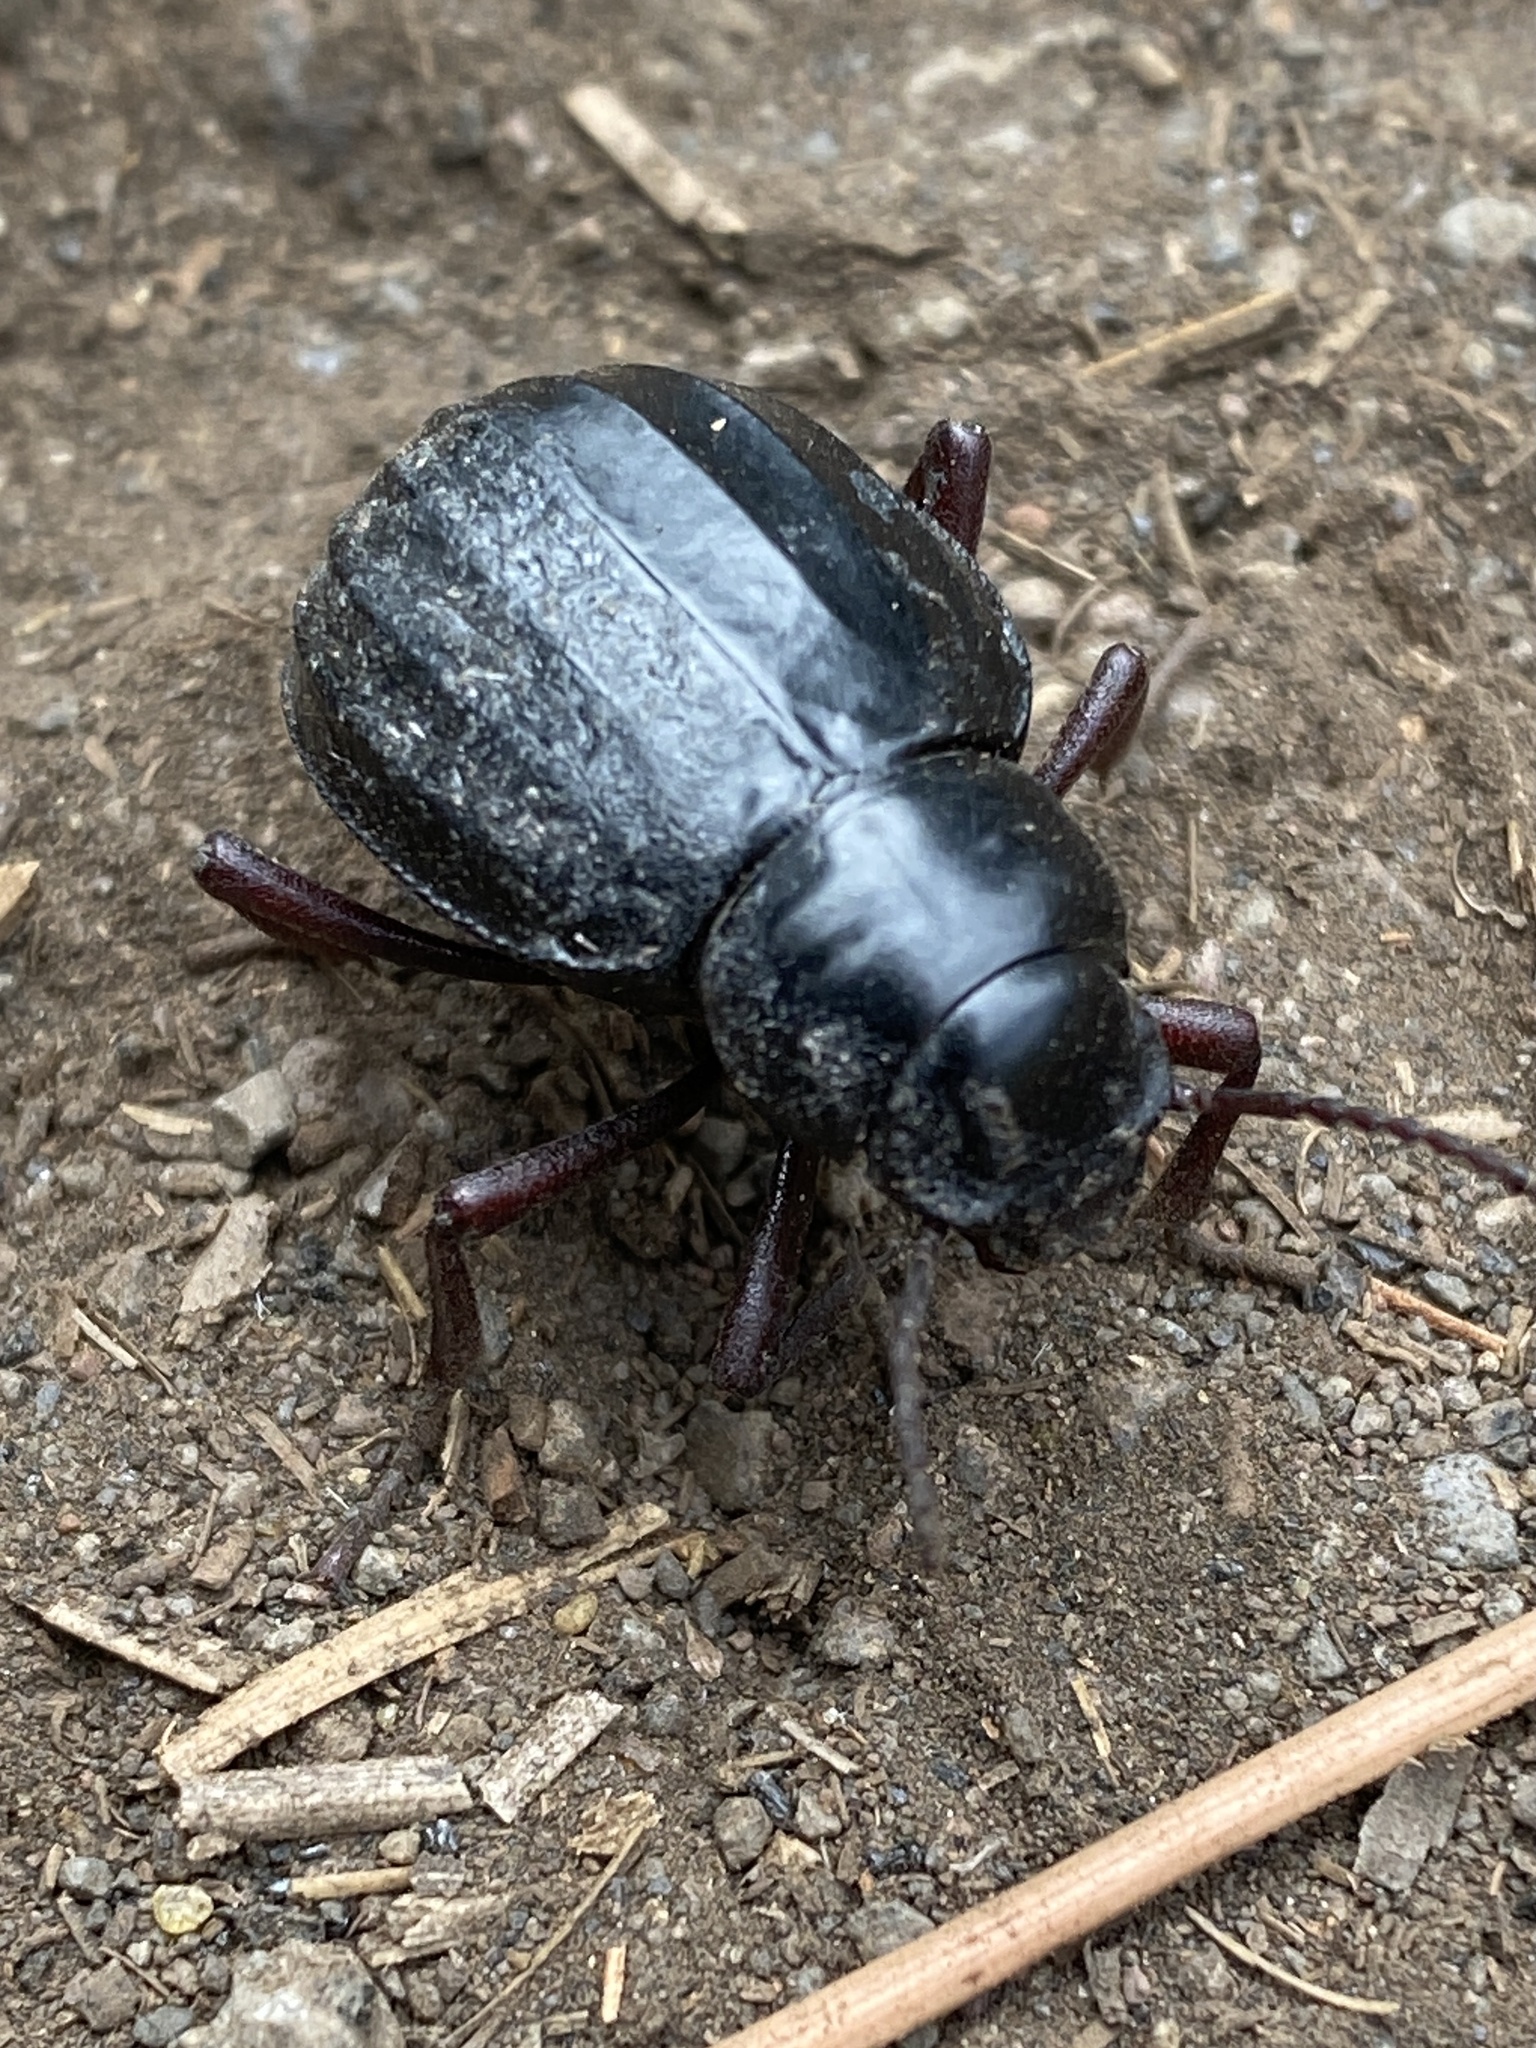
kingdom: Animalia
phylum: Arthropoda
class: Insecta
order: Coleoptera
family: Tenebrionidae
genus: Pimelia
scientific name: Pimelia laevigata
